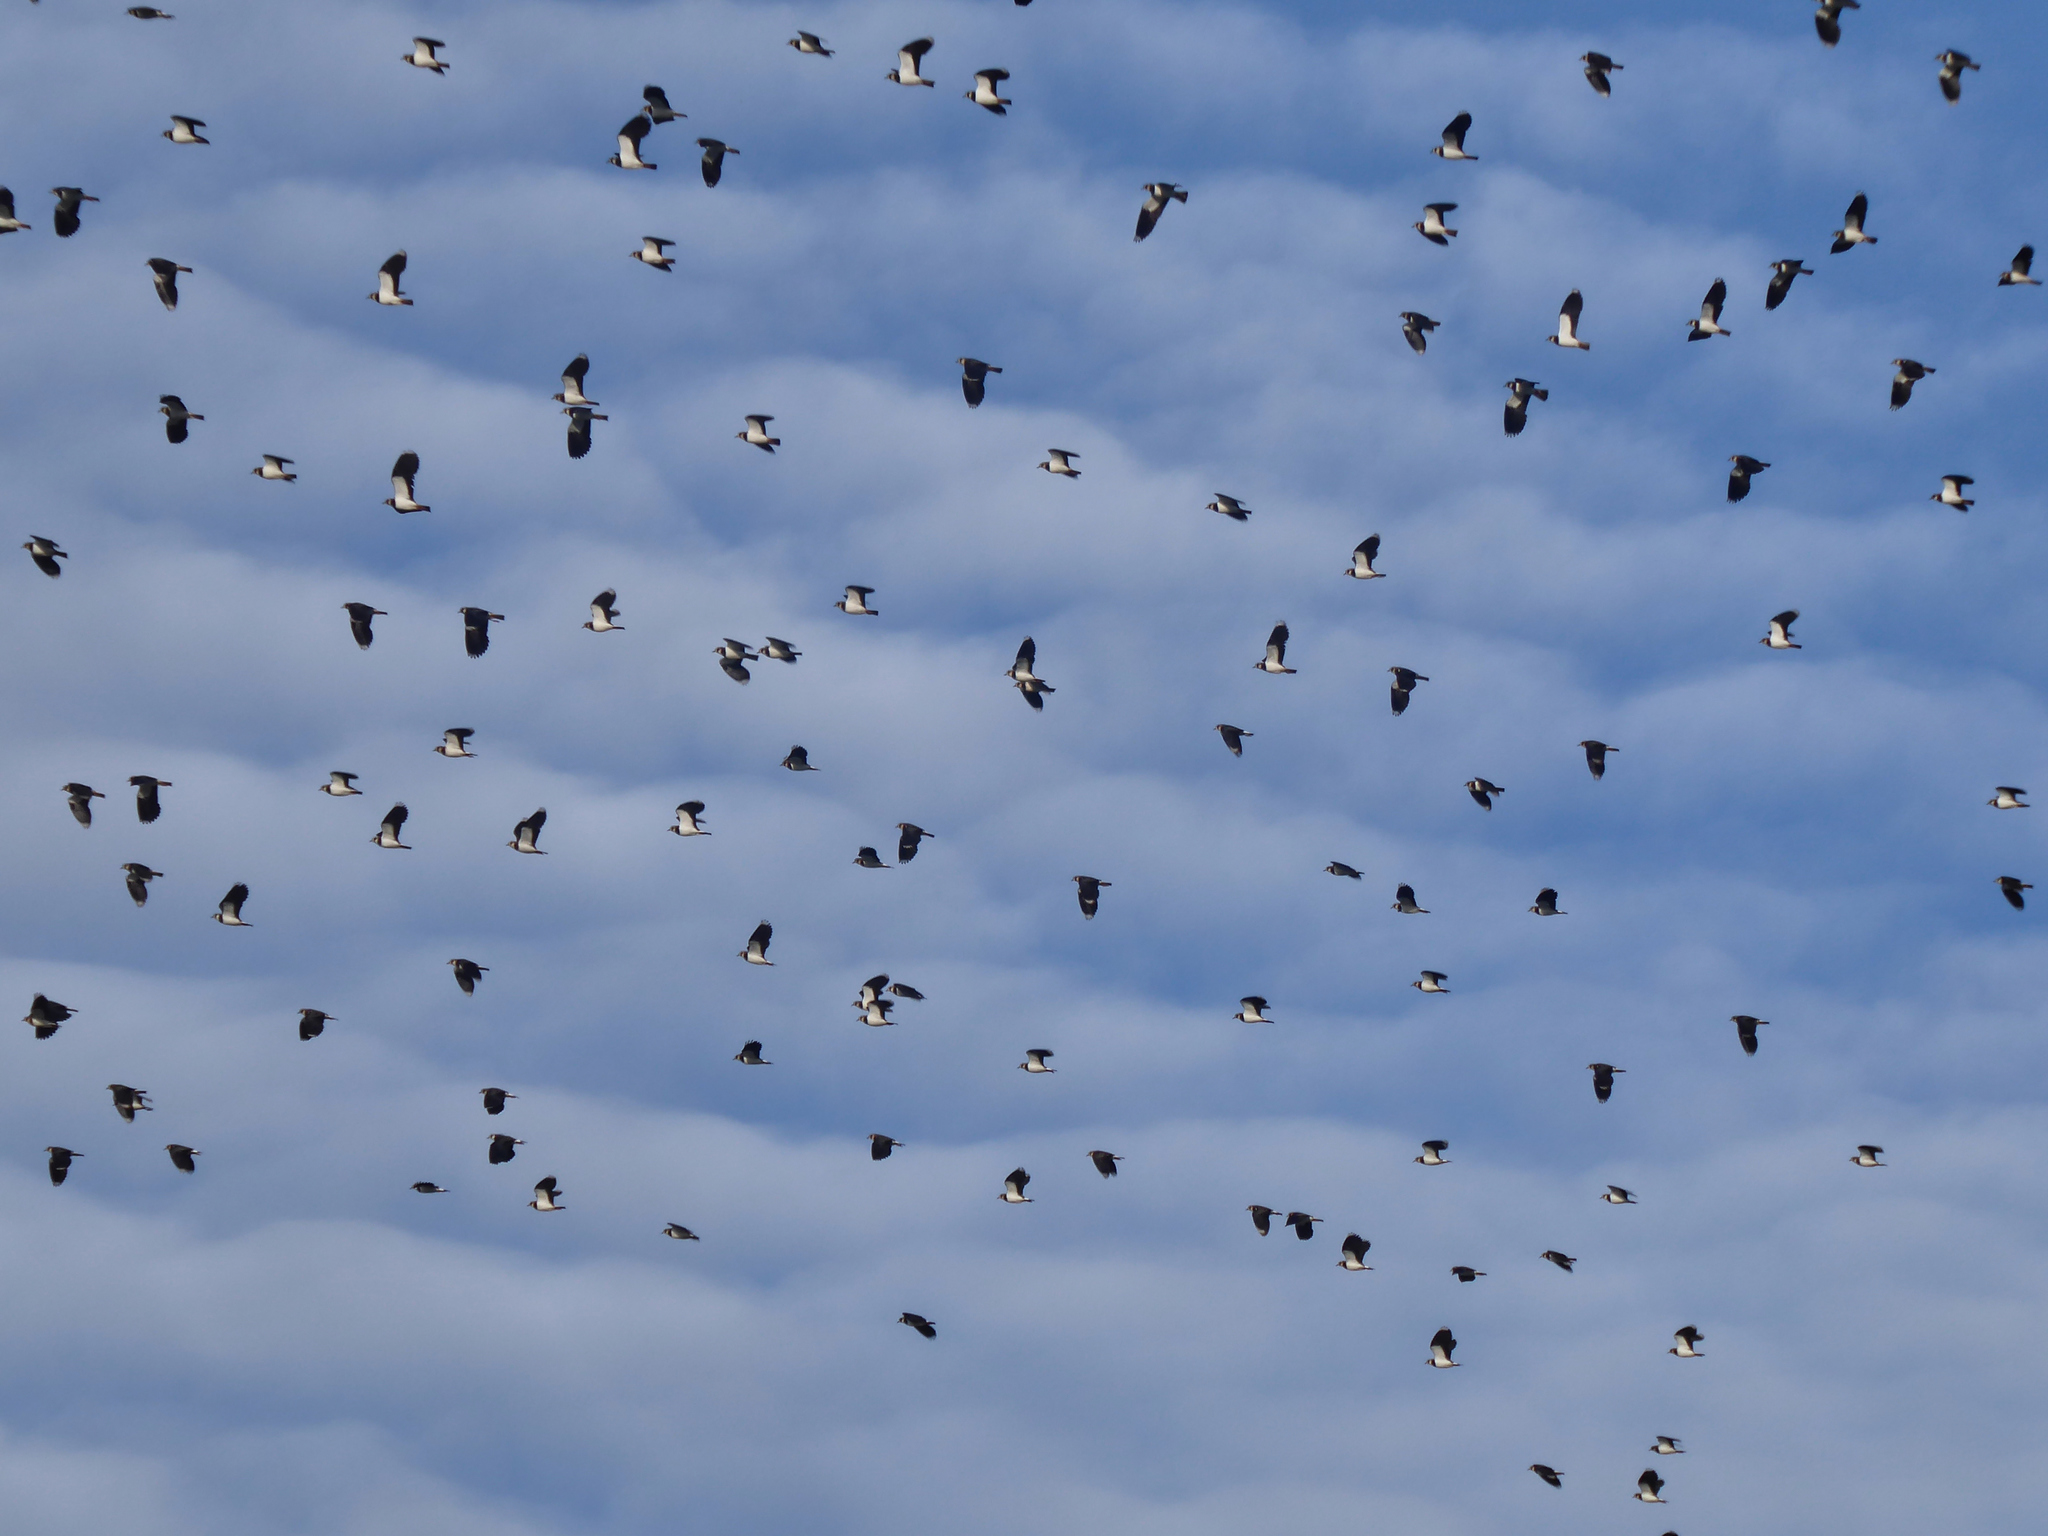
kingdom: Animalia
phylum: Chordata
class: Aves
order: Charadriiformes
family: Charadriidae
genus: Vanellus
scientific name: Vanellus vanellus
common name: Northern lapwing
